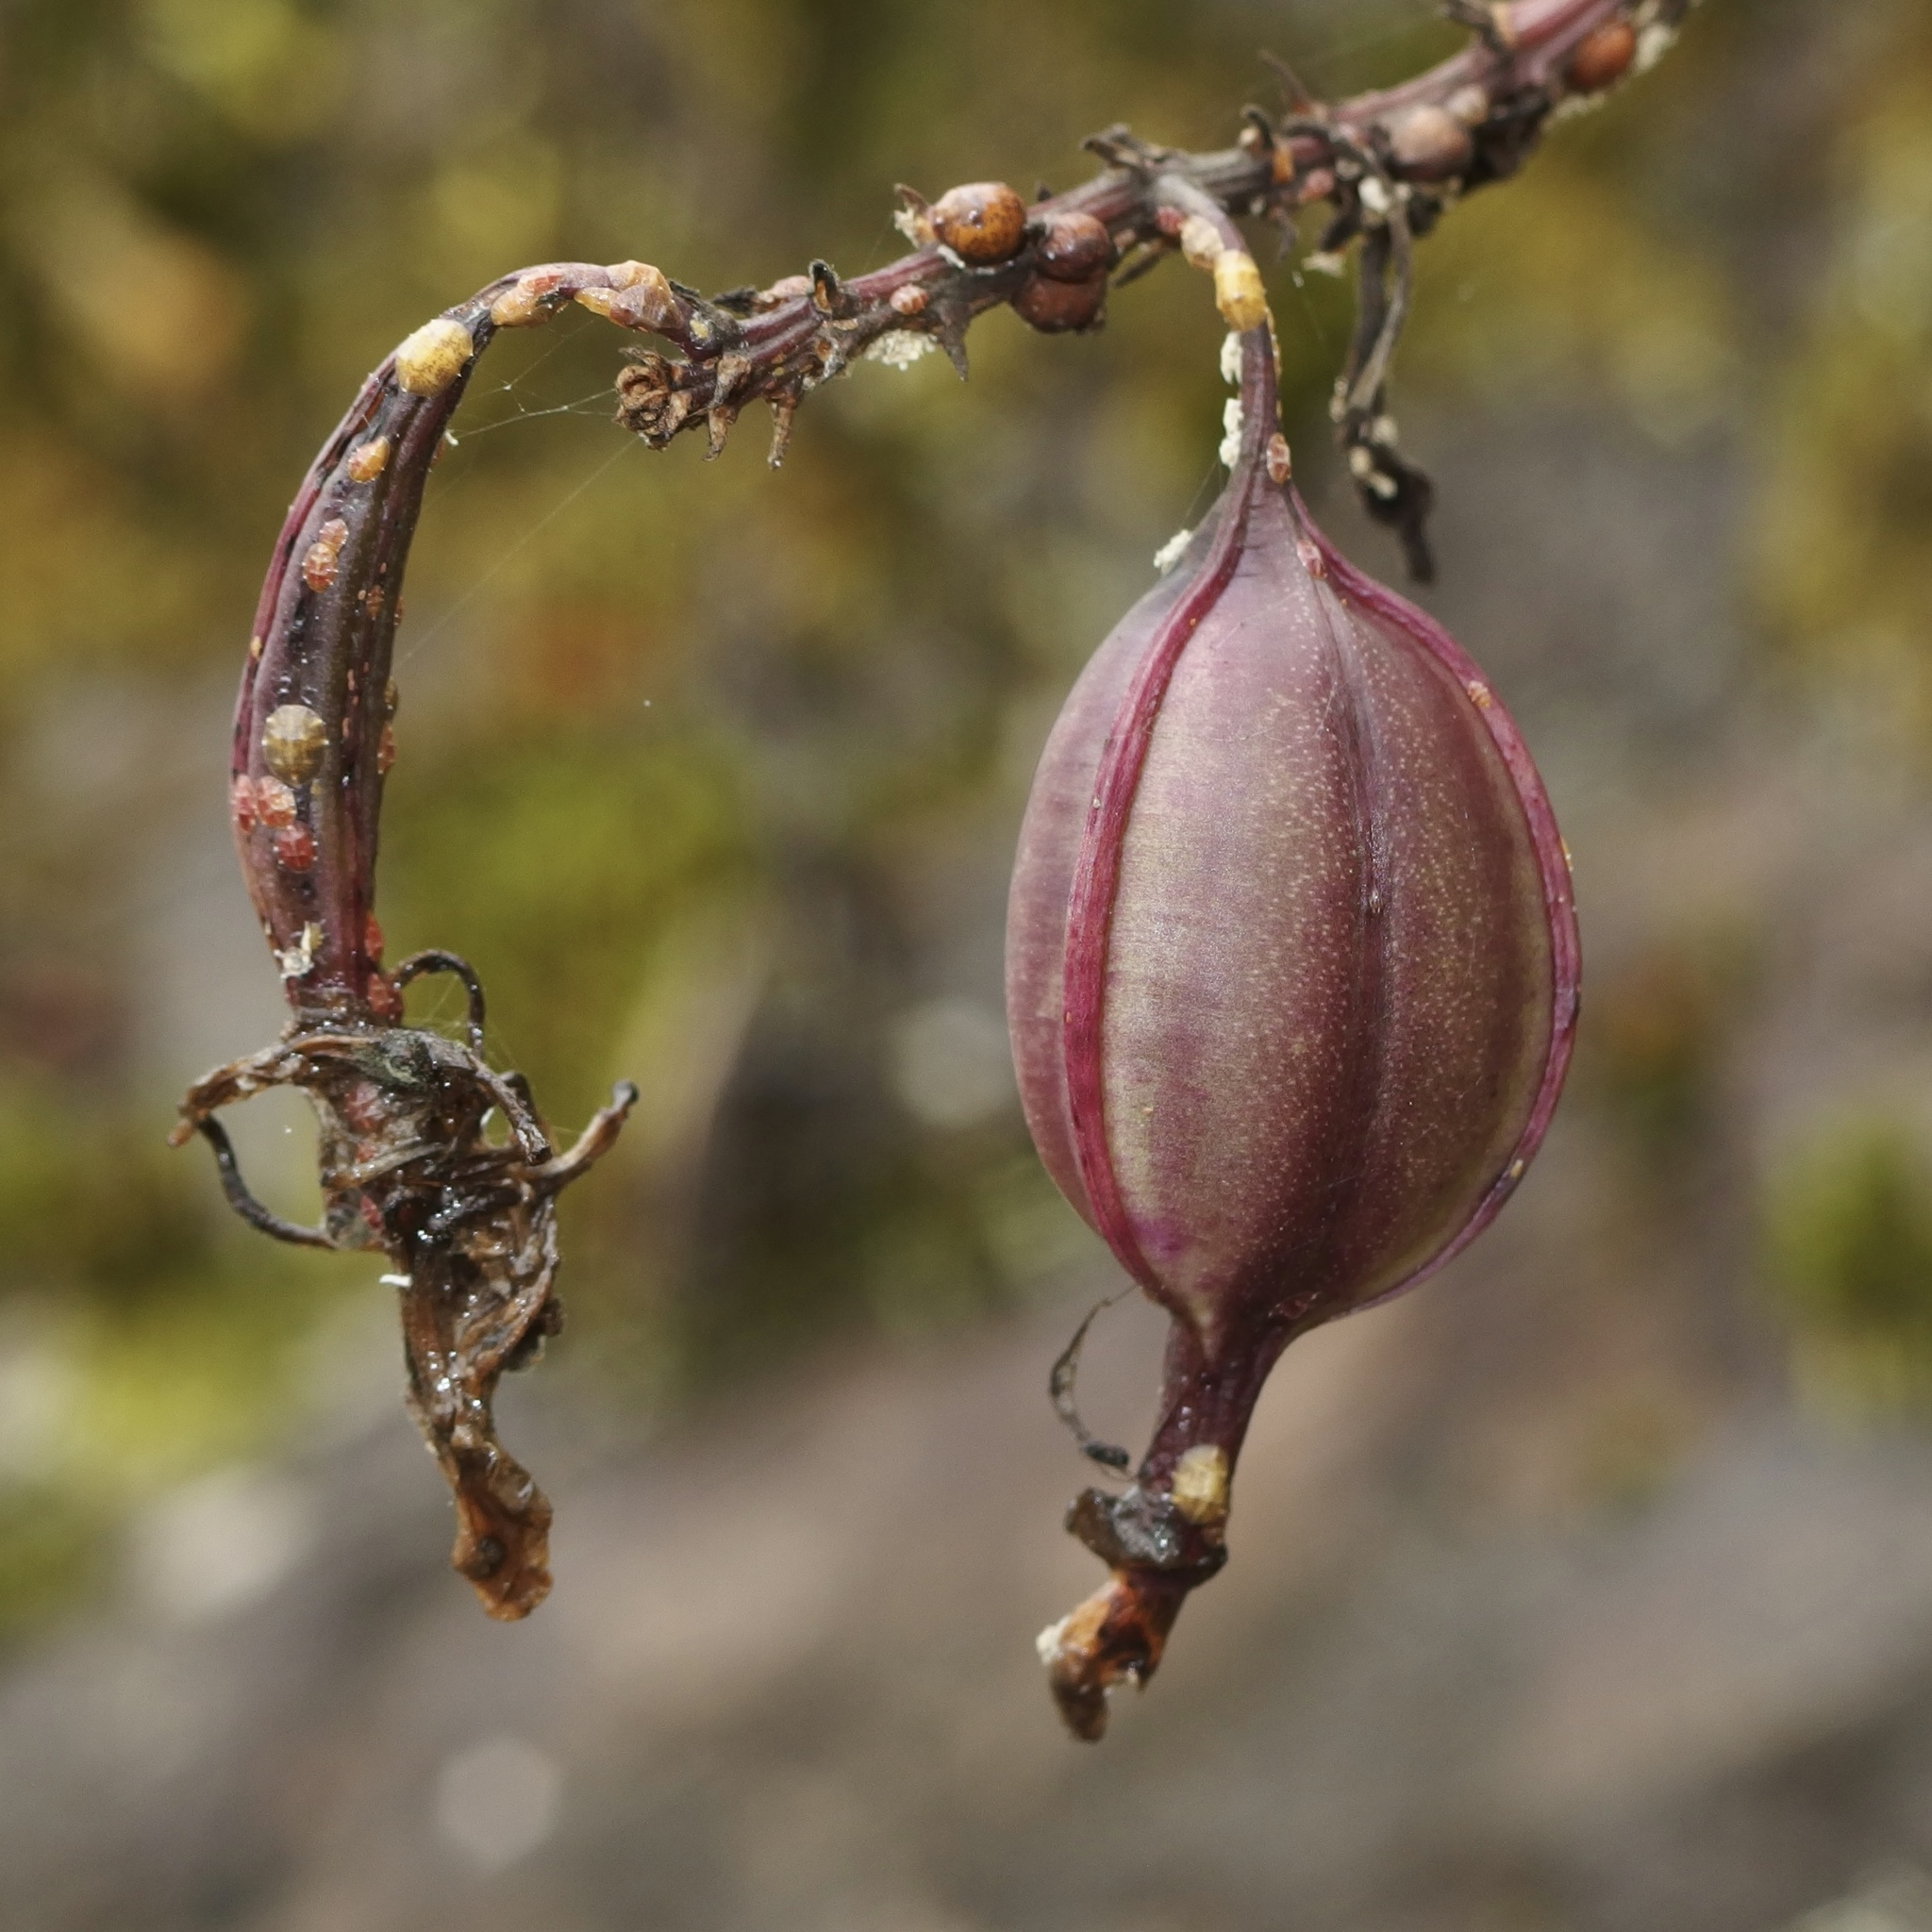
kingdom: Plantae
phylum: Tracheophyta
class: Liliopsida
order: Asparagales
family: Orchidaceae
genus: Epidendrum
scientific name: Epidendrum calanthum
